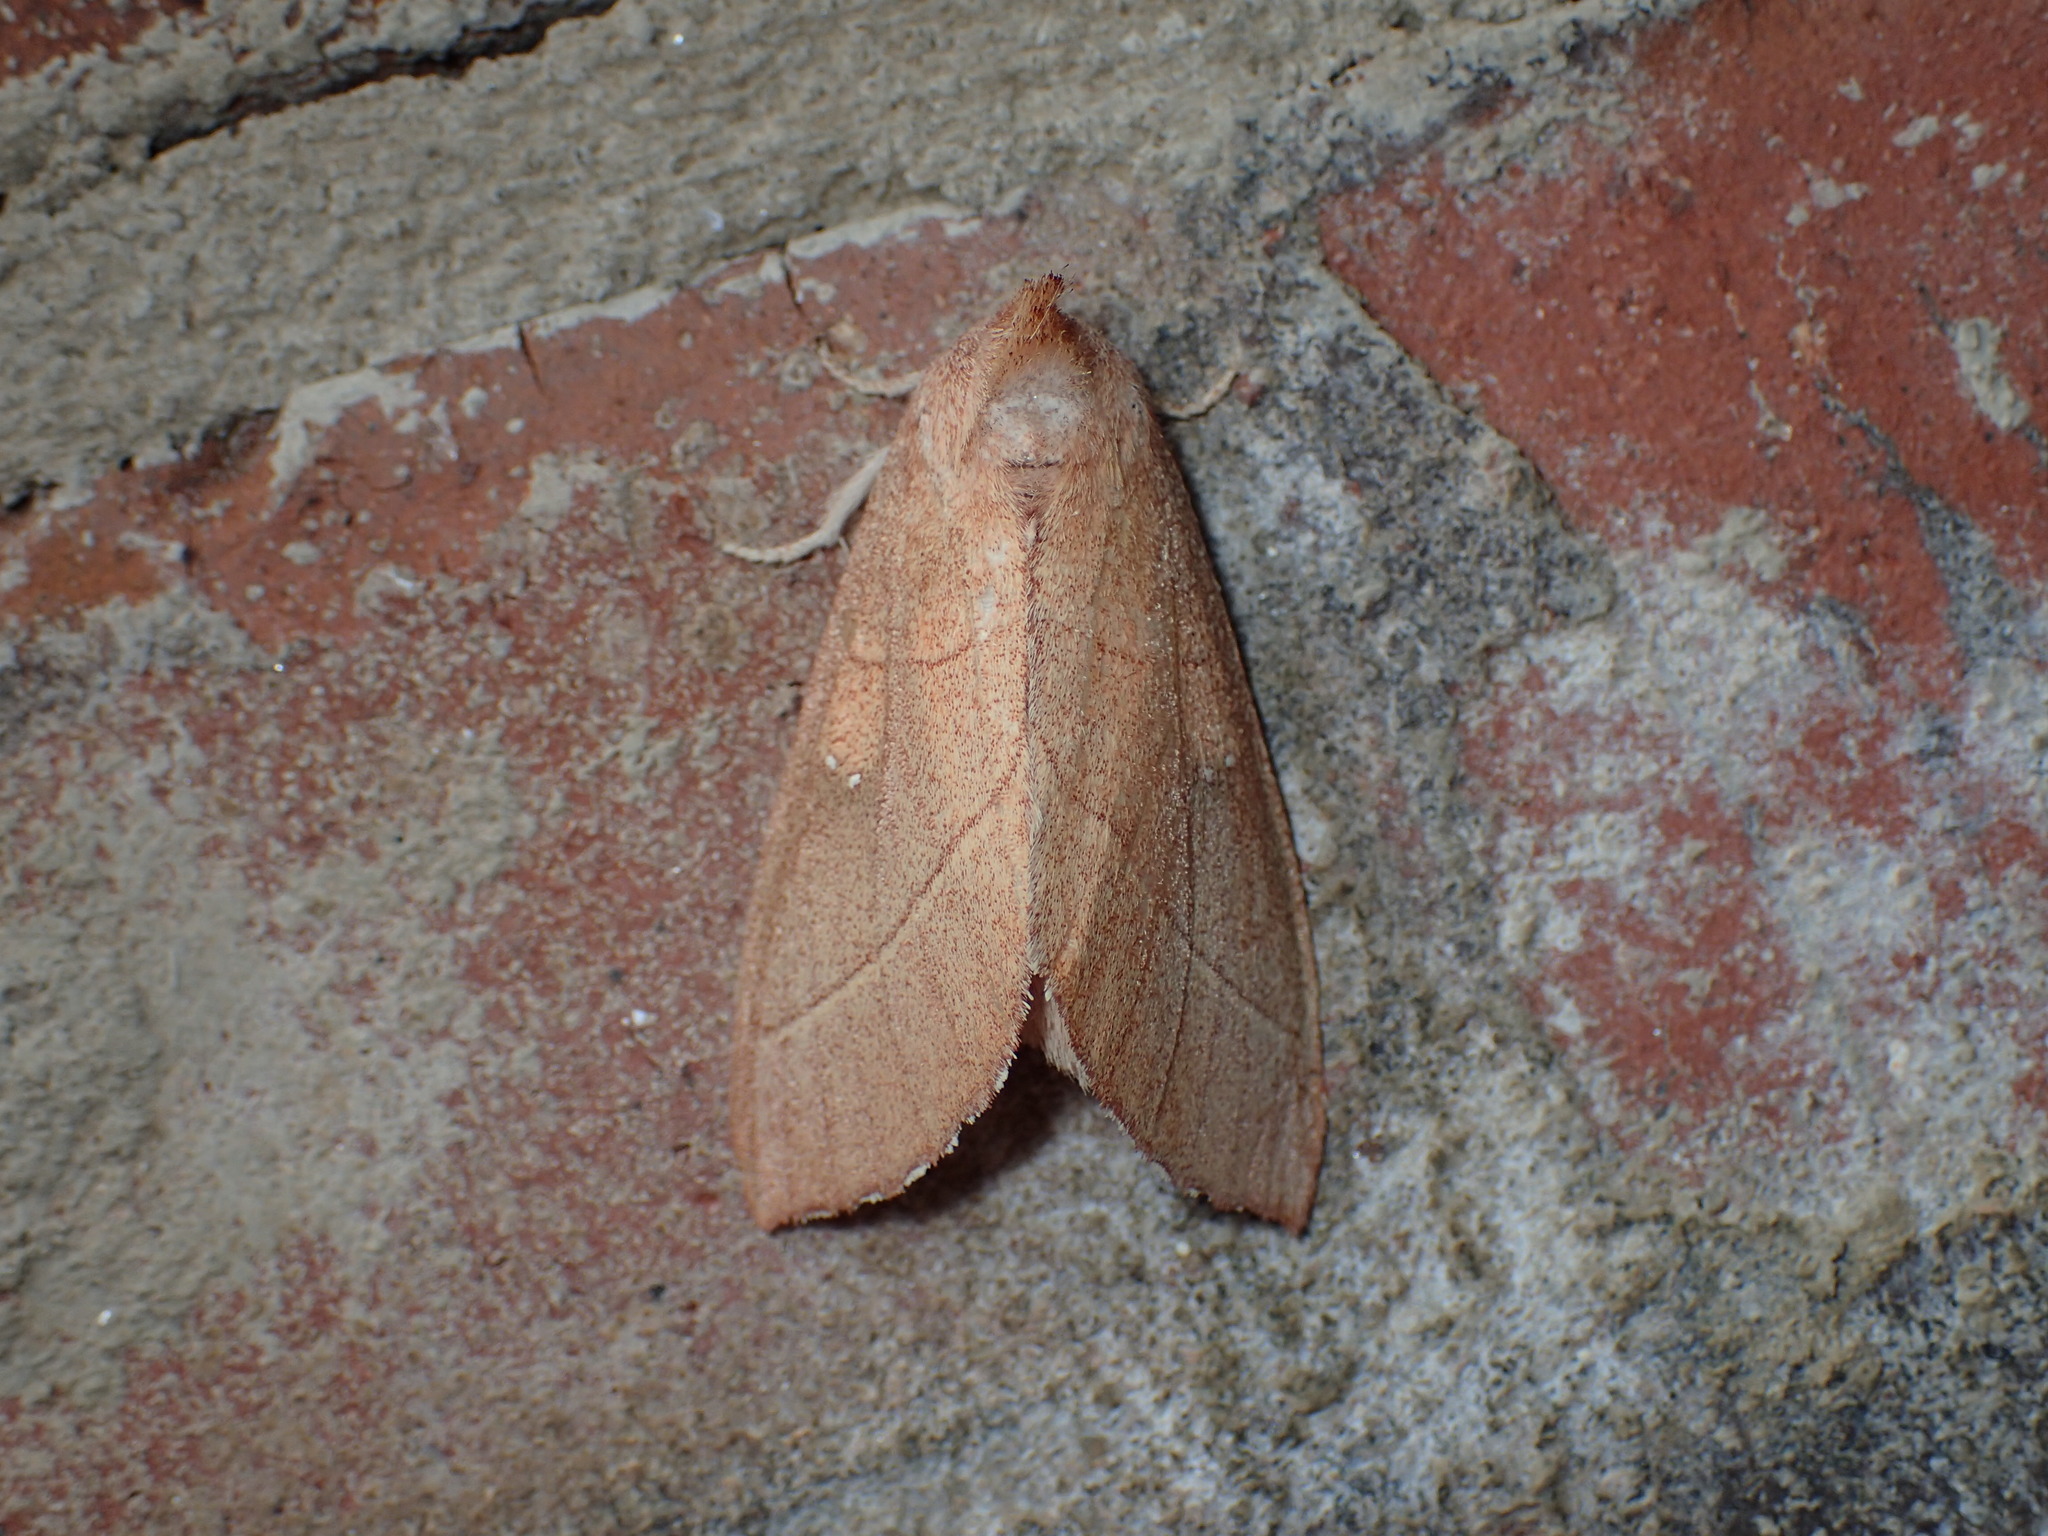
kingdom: Animalia
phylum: Arthropoda
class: Insecta
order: Lepidoptera
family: Notodontidae
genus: Nadata
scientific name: Nadata gibbosa
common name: White-dotted prominent
